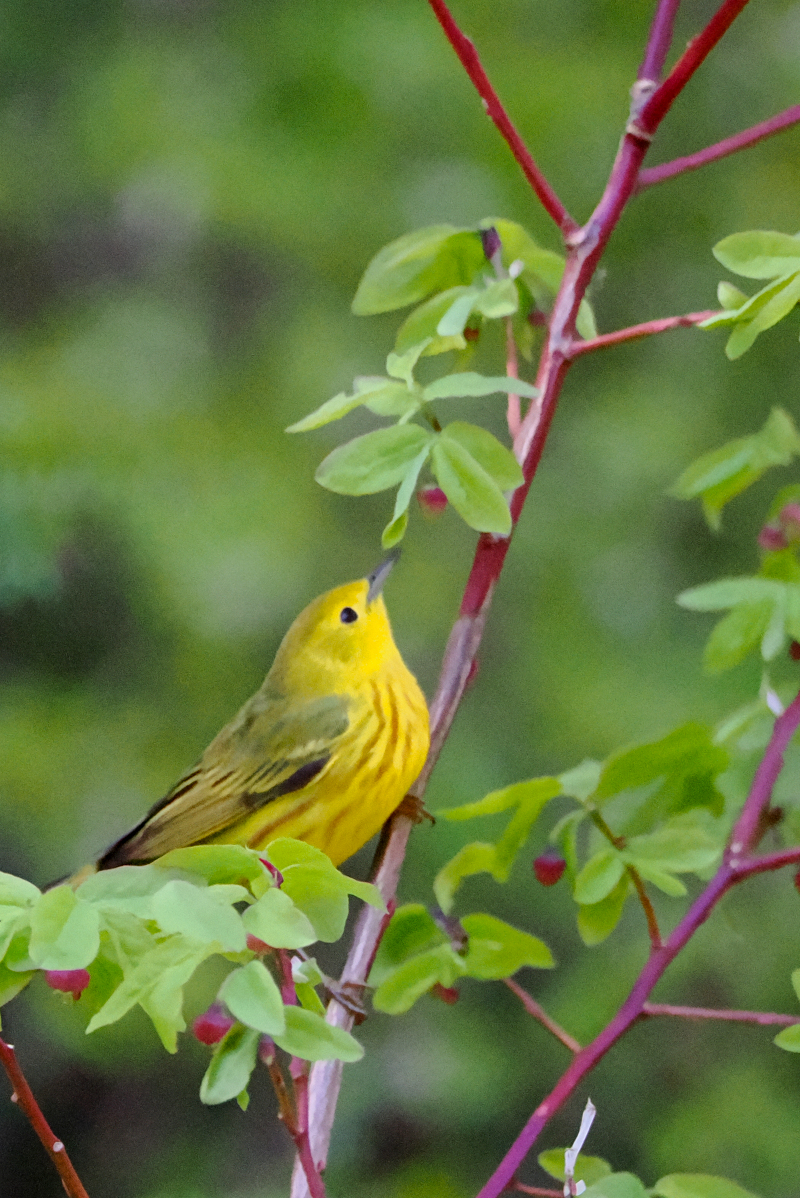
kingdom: Animalia
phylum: Chordata
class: Aves
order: Passeriformes
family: Parulidae
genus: Setophaga
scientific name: Setophaga petechia
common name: Yellow warbler
